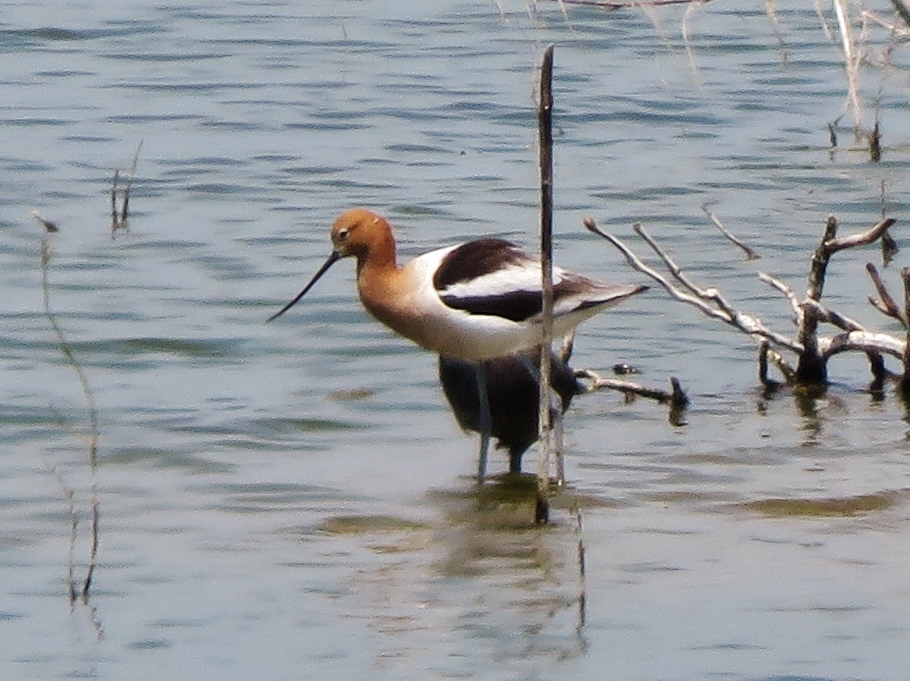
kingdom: Animalia
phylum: Chordata
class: Aves
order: Charadriiformes
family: Recurvirostridae
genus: Recurvirostra
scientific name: Recurvirostra americana
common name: American avocet
